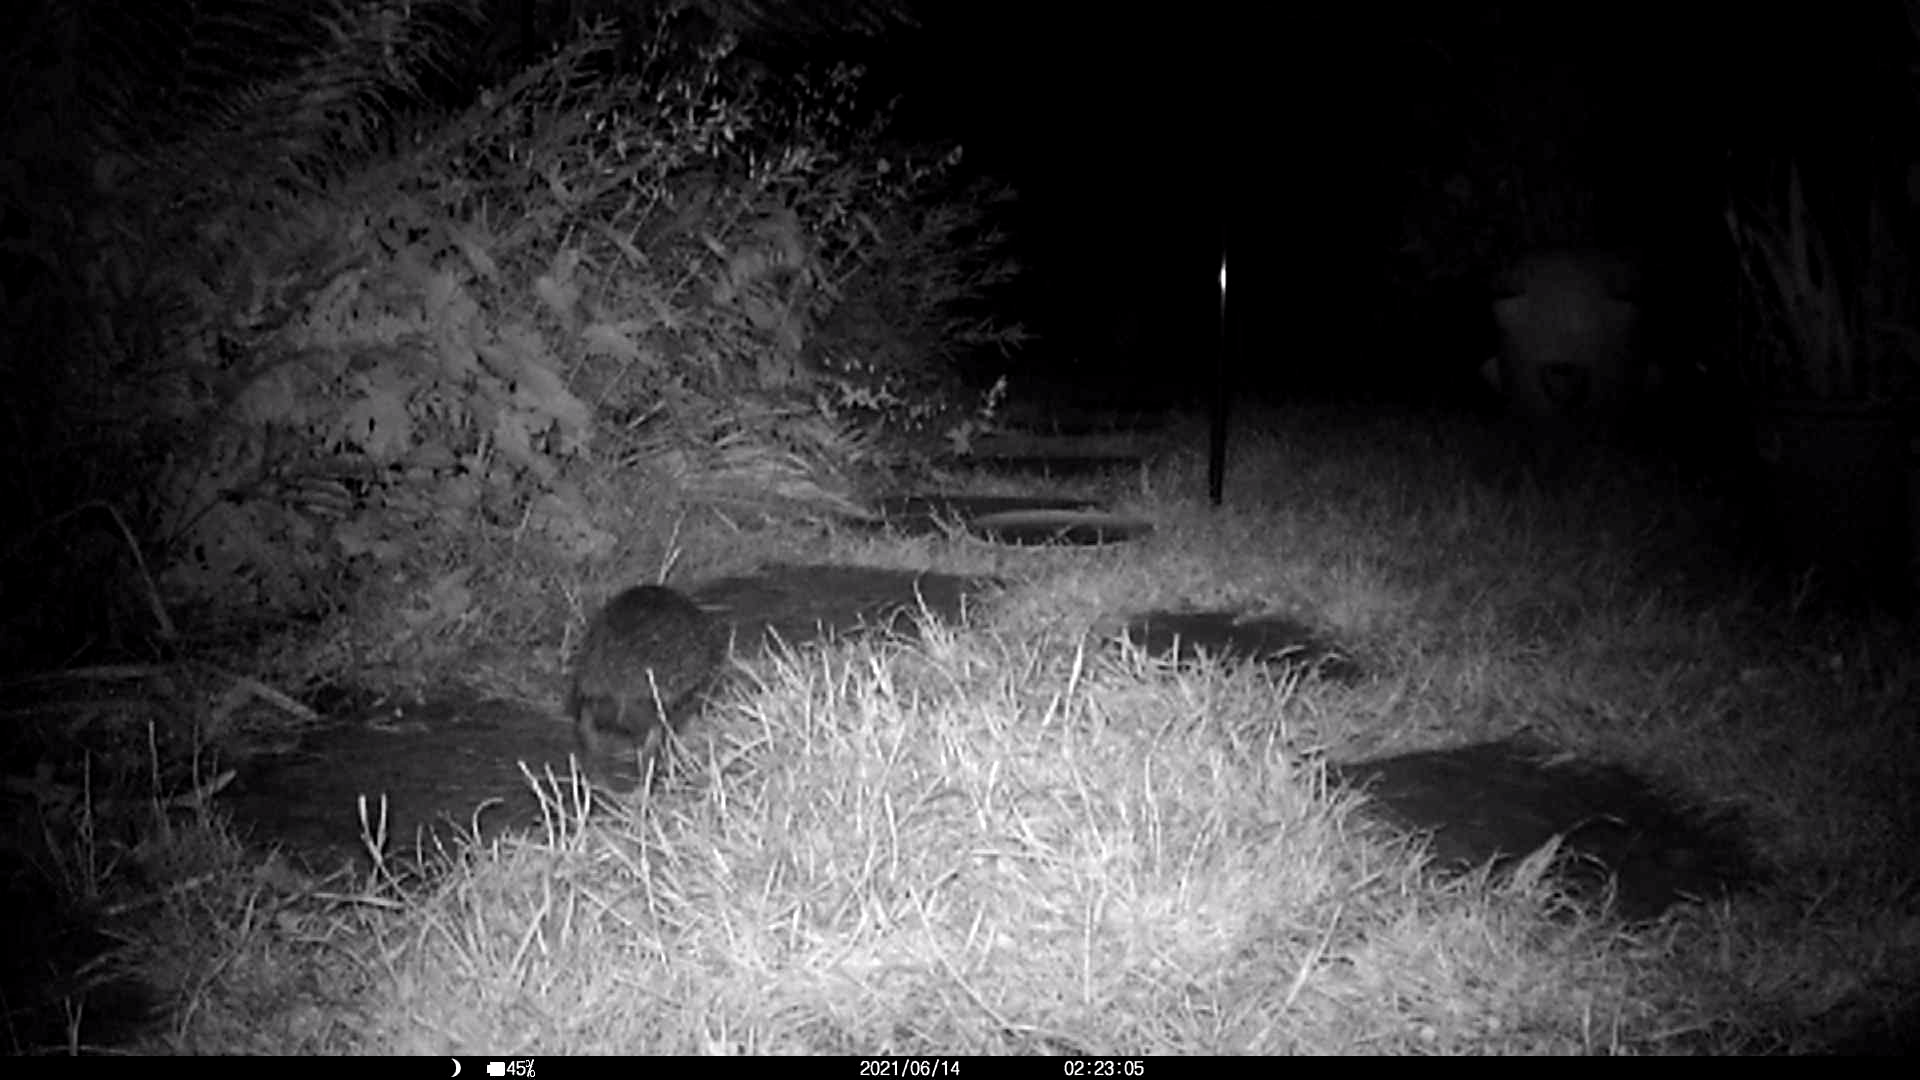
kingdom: Animalia
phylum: Chordata
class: Mammalia
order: Erinaceomorpha
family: Erinaceidae
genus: Erinaceus
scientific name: Erinaceus europaeus
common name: West european hedgehog
